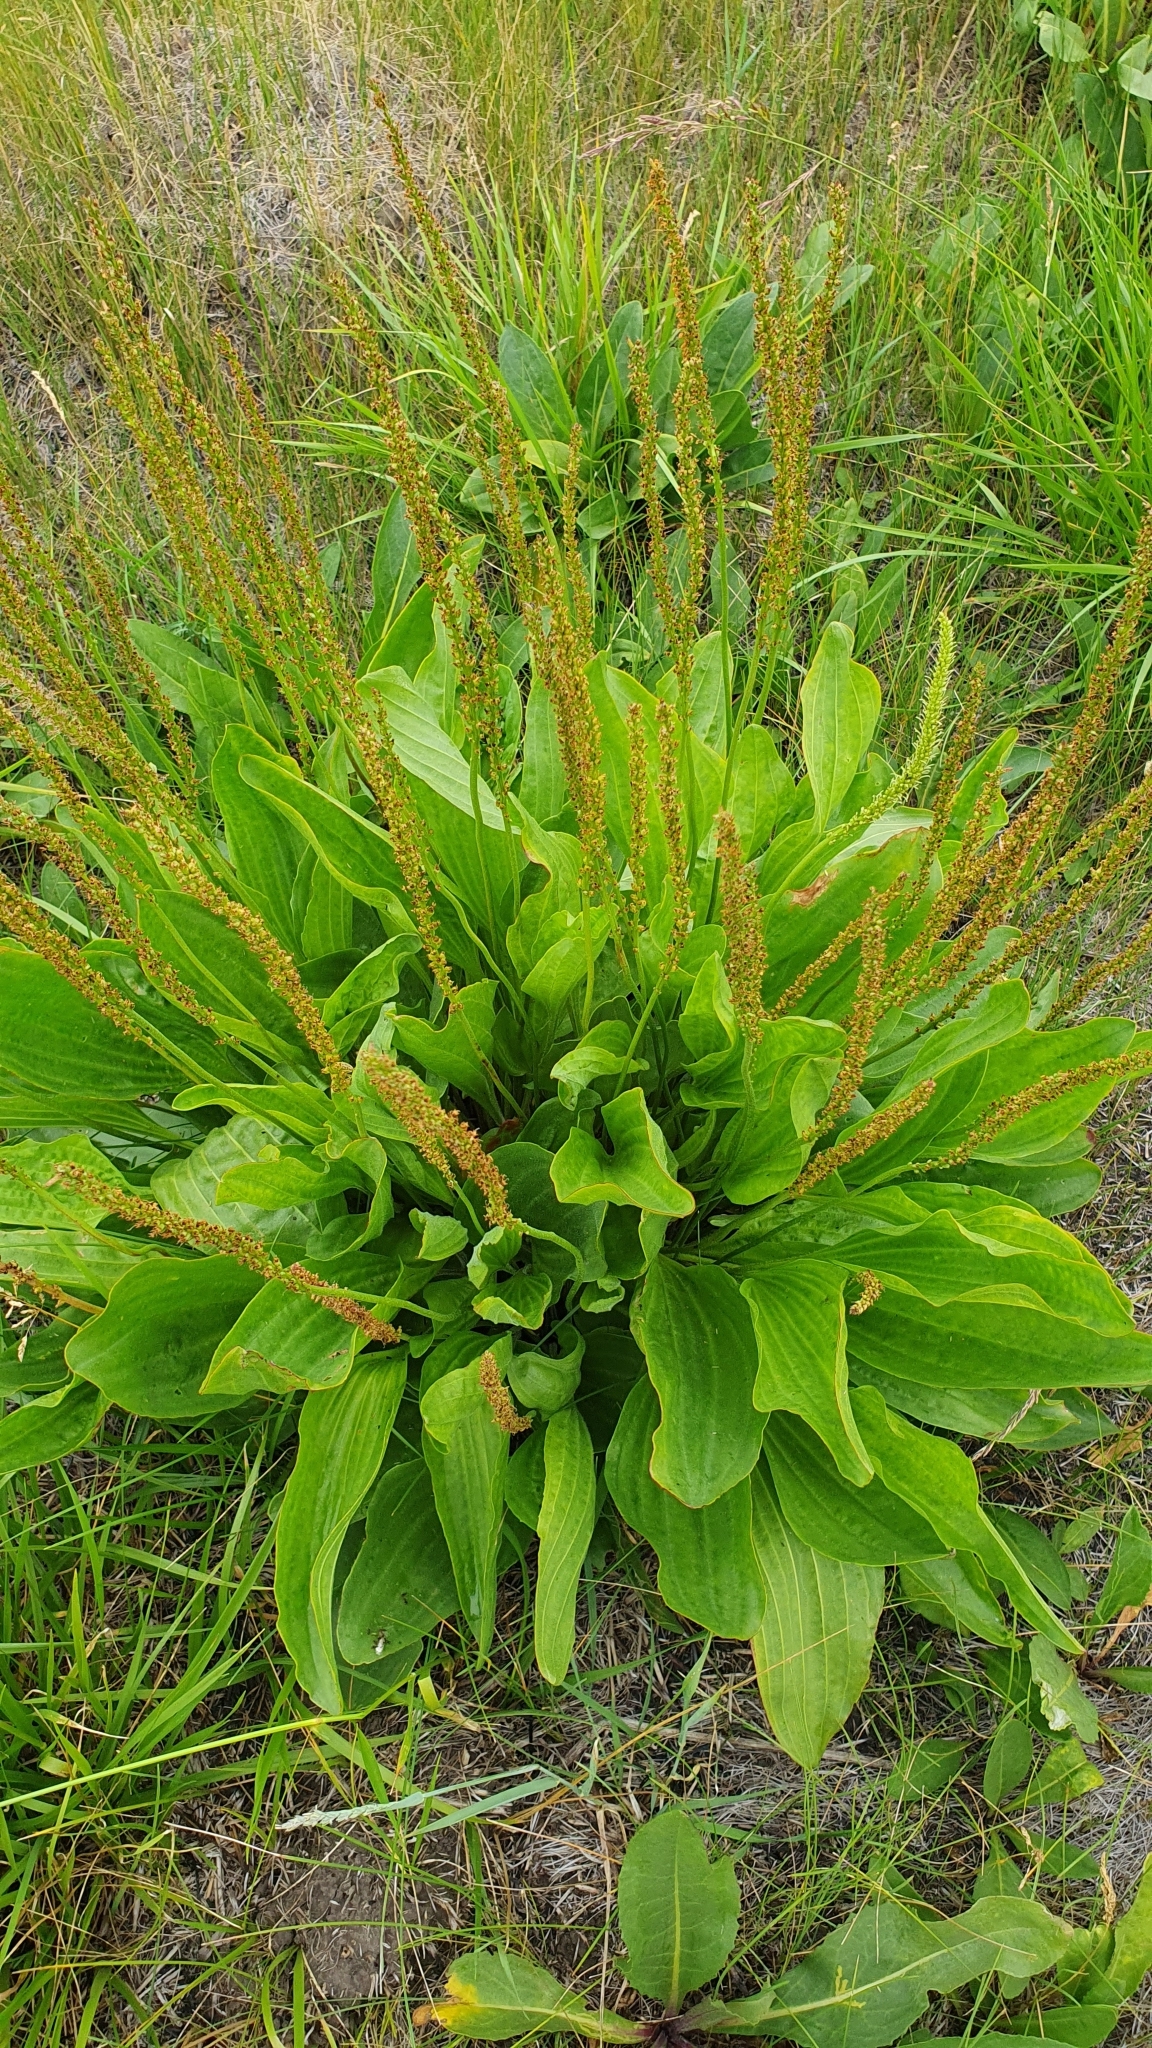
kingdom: Plantae
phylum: Tracheophyta
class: Magnoliopsida
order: Lamiales
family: Plantaginaceae
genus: Plantago
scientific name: Plantago cornuti
